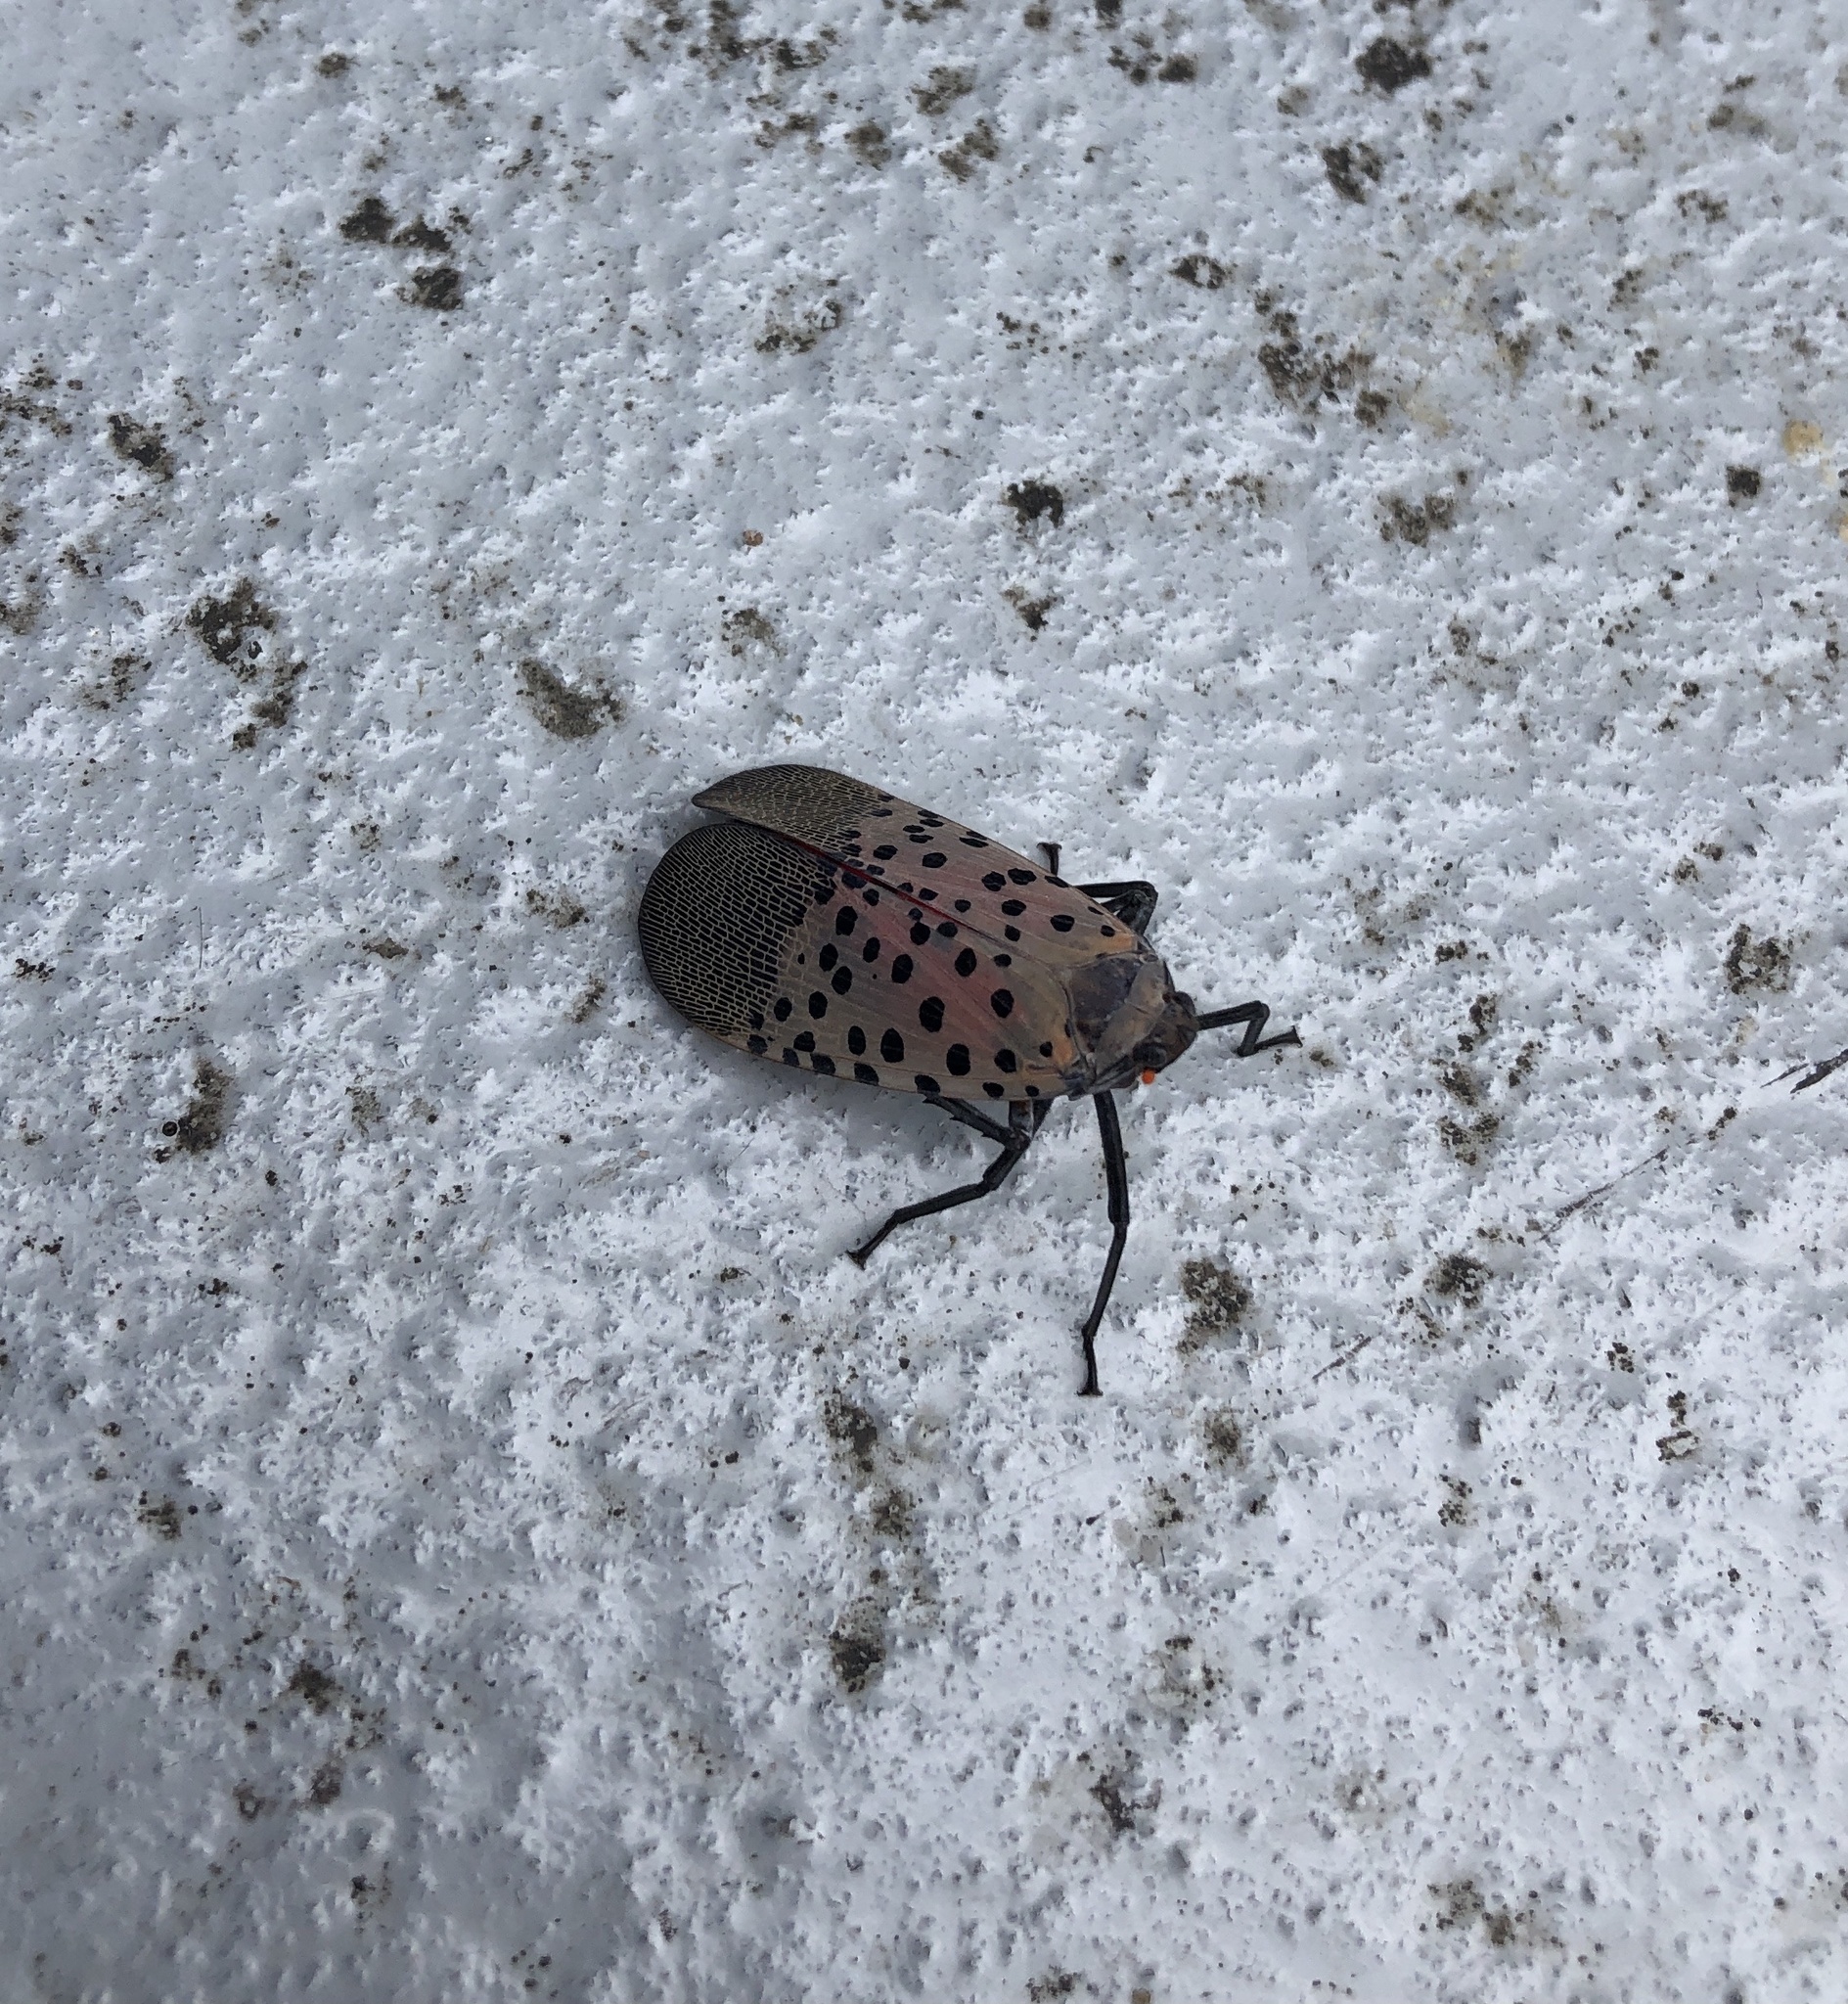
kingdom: Animalia
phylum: Arthropoda
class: Insecta
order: Hemiptera
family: Fulgoridae
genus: Lycorma
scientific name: Lycorma delicatula
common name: Spotted lanternfly
